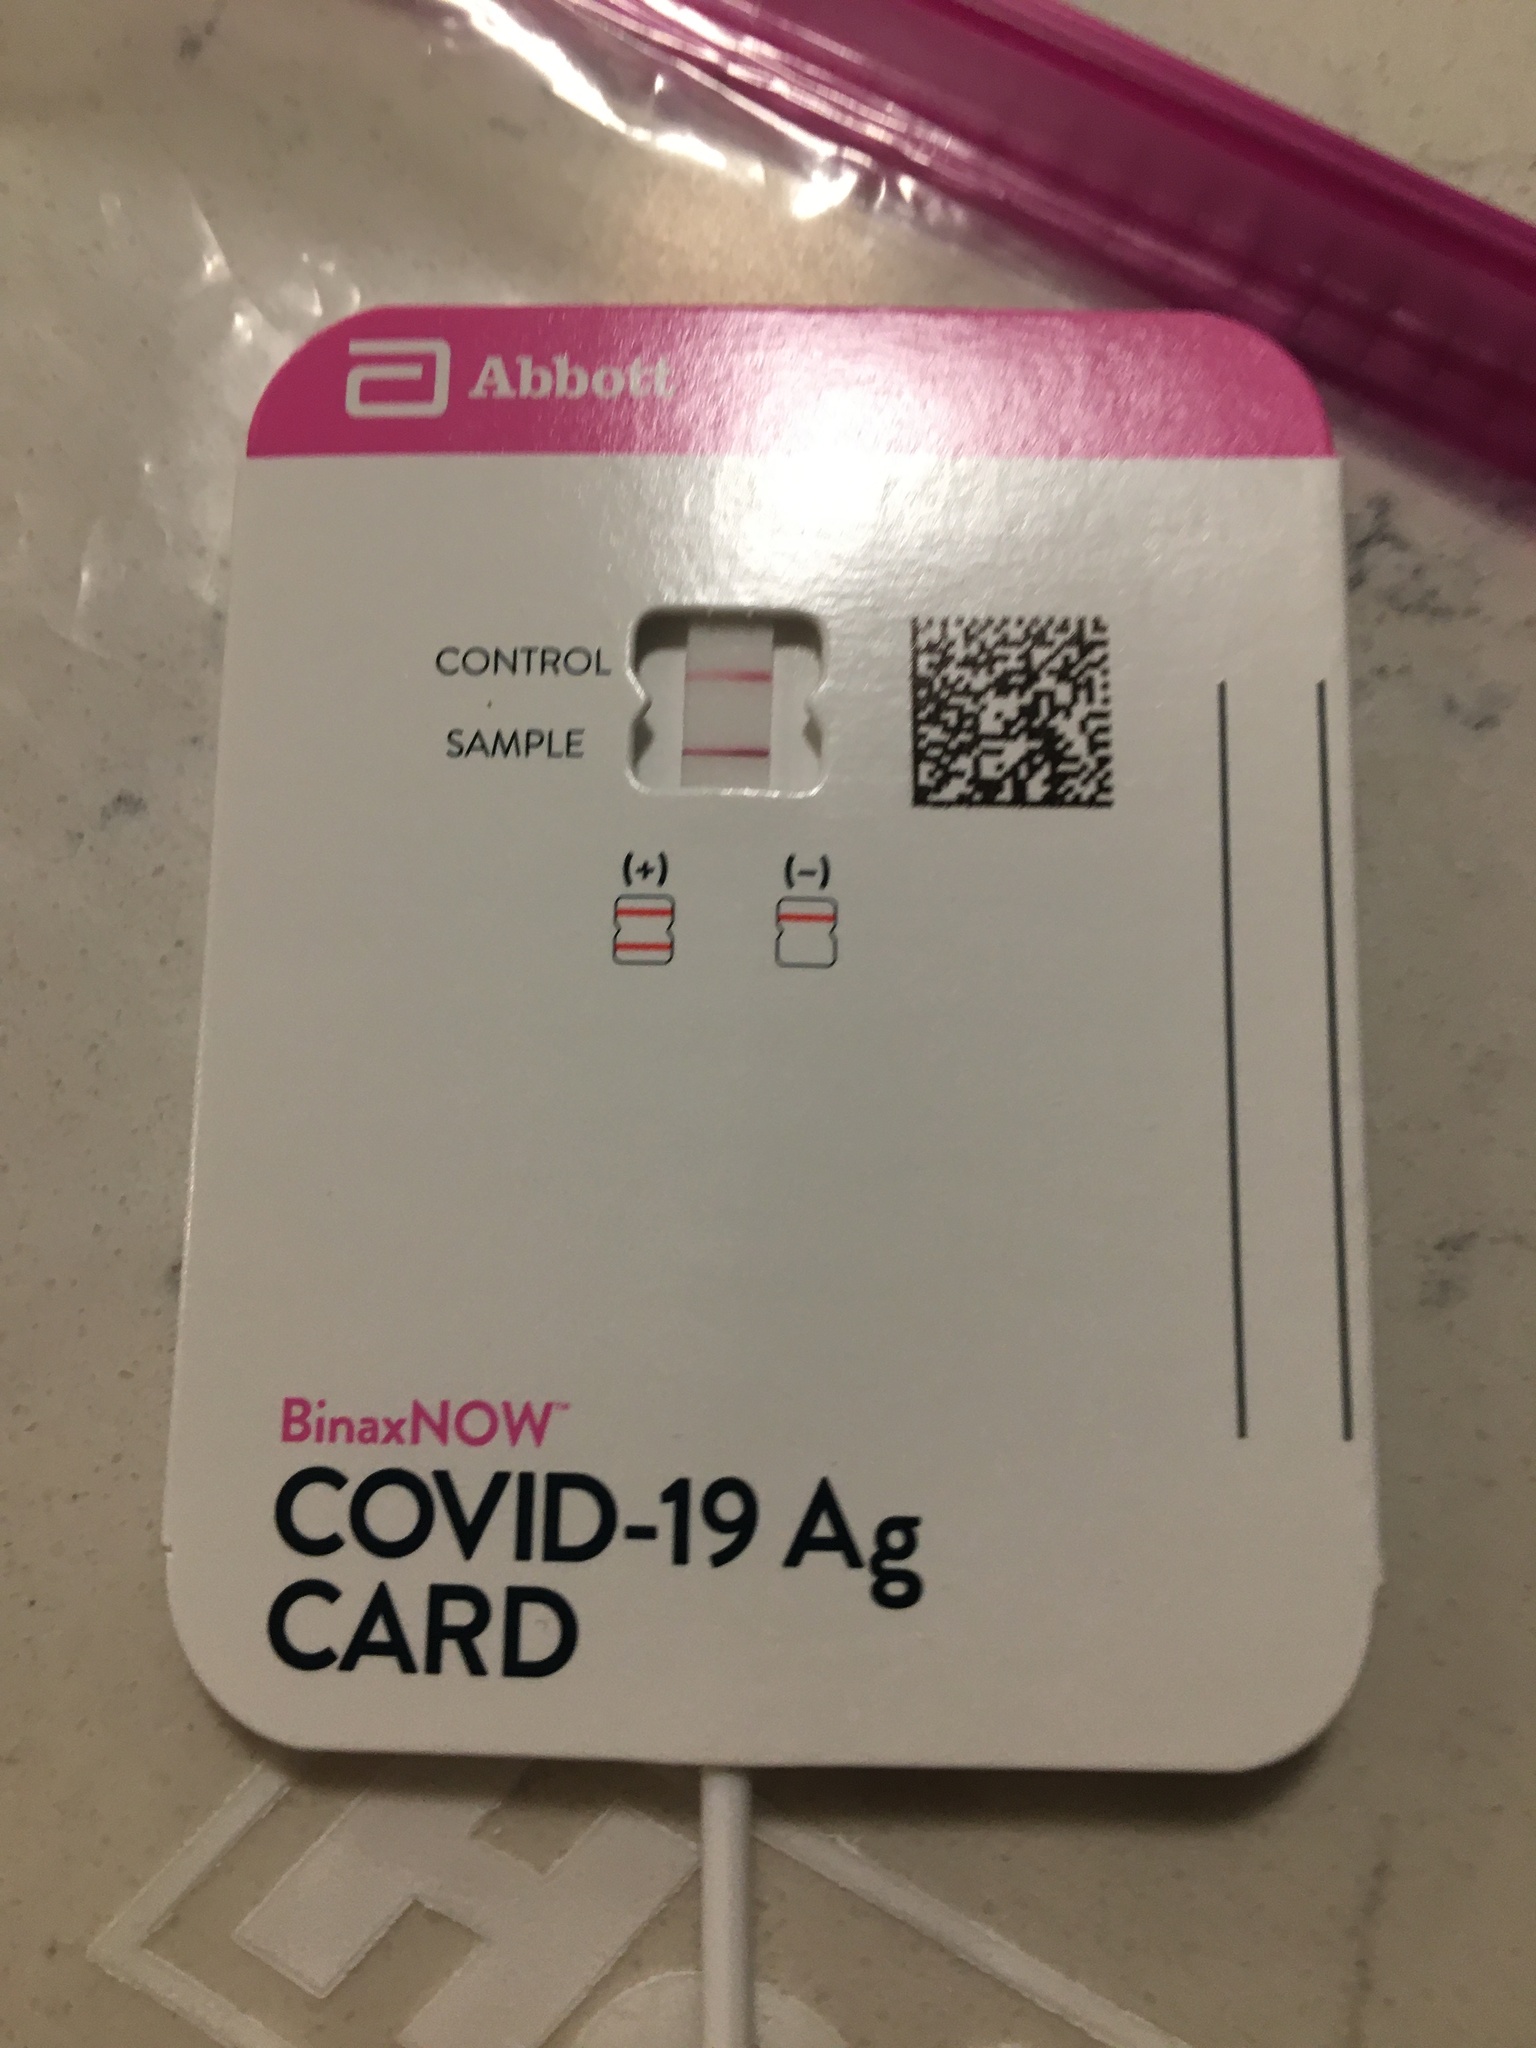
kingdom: Viruses
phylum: Pisuviricota
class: Pisoniviricetes
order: Nidovirales
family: Coronaviridae
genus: Betacoronavirus
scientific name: Betacoronavirus
